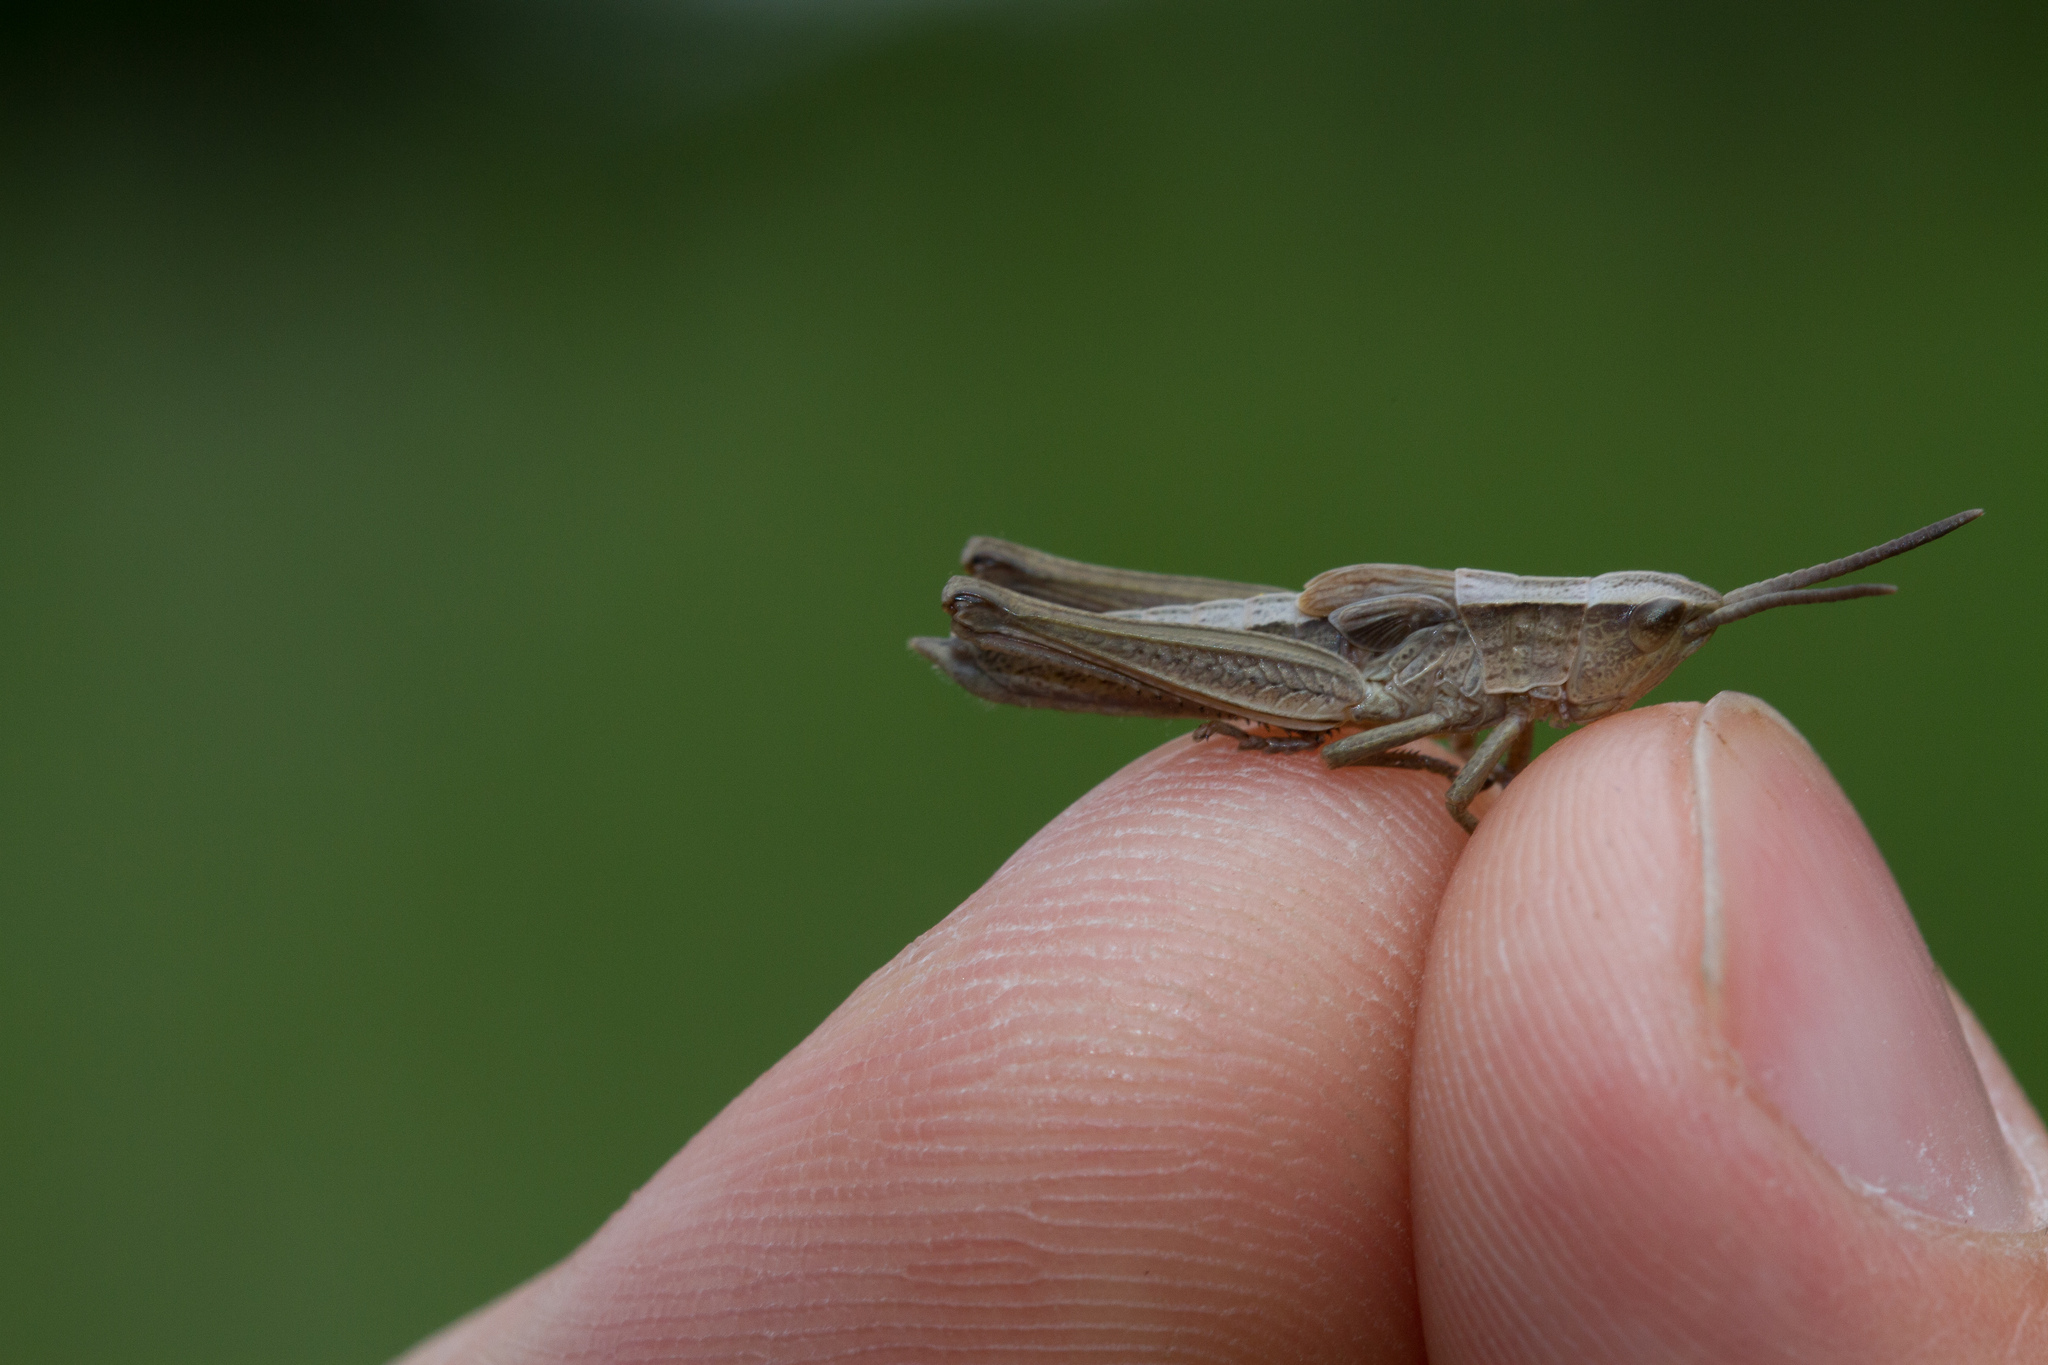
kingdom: Animalia
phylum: Arthropoda
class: Insecta
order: Orthoptera
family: Acrididae
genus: Chrysochraon
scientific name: Chrysochraon dispar
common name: Large gold grasshopper
